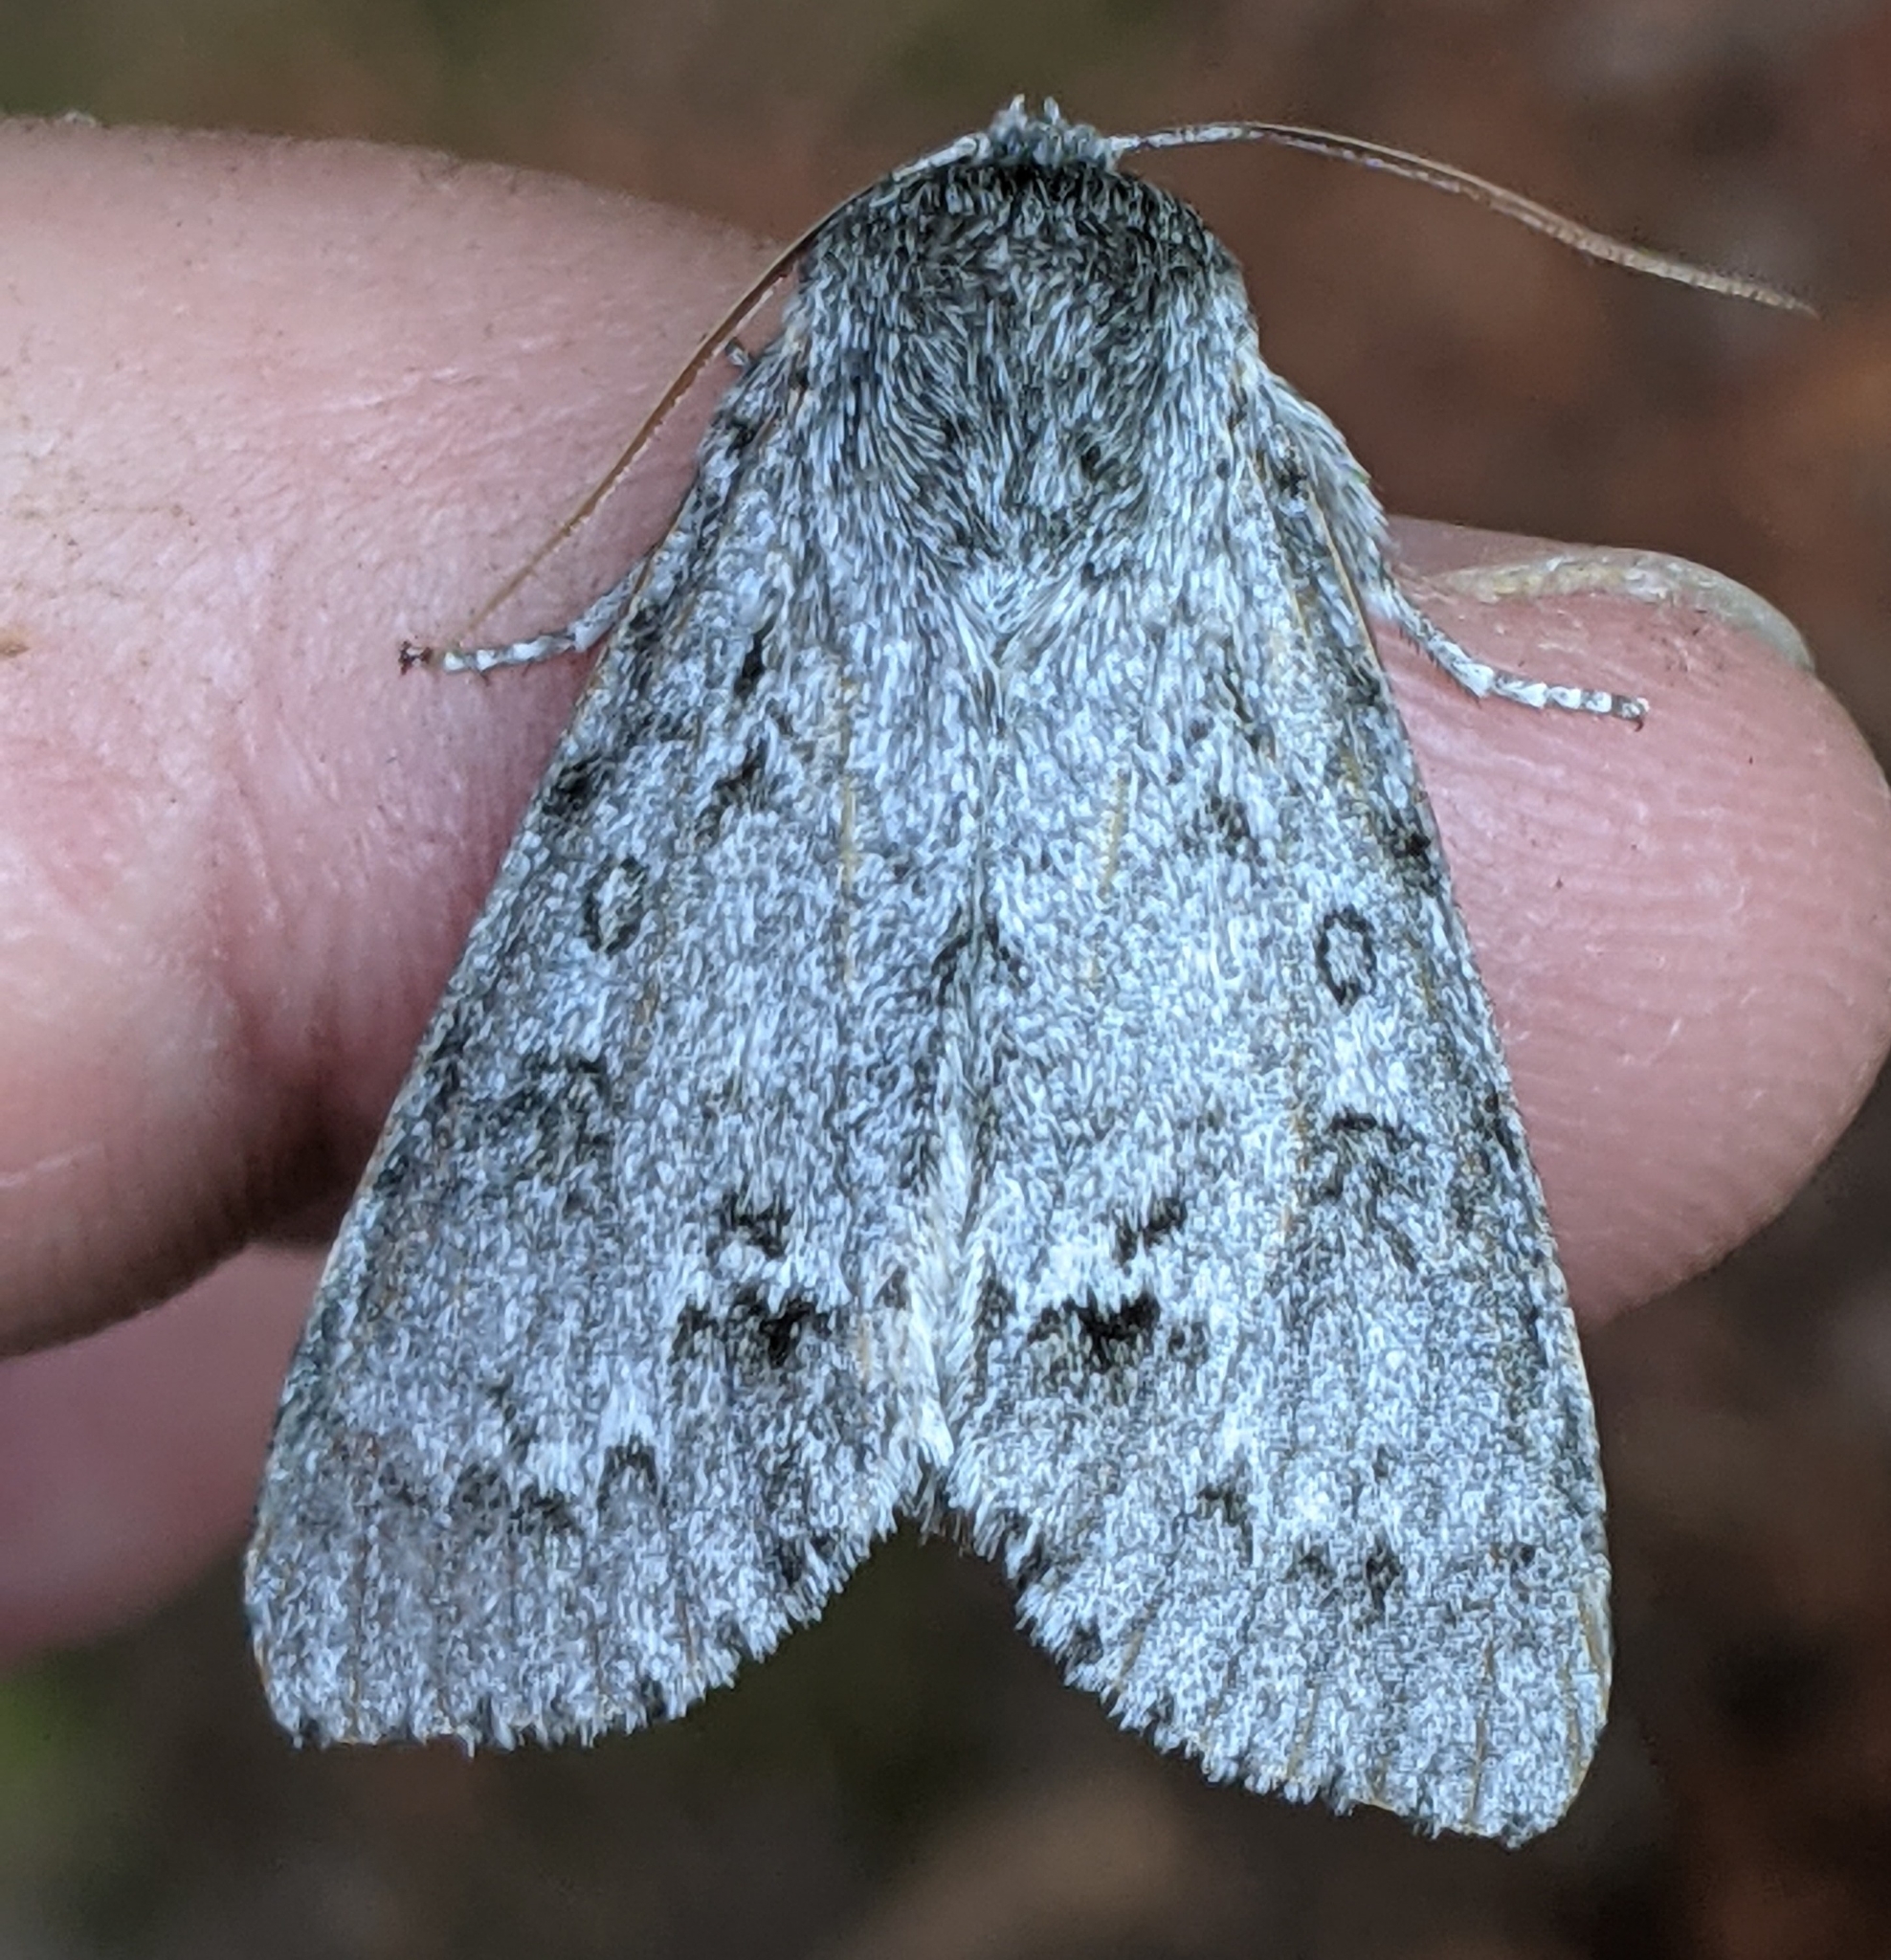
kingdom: Animalia
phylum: Arthropoda
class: Insecta
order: Lepidoptera
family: Noctuidae
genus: Acronicta
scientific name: Acronicta insita
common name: Large gray dagger
